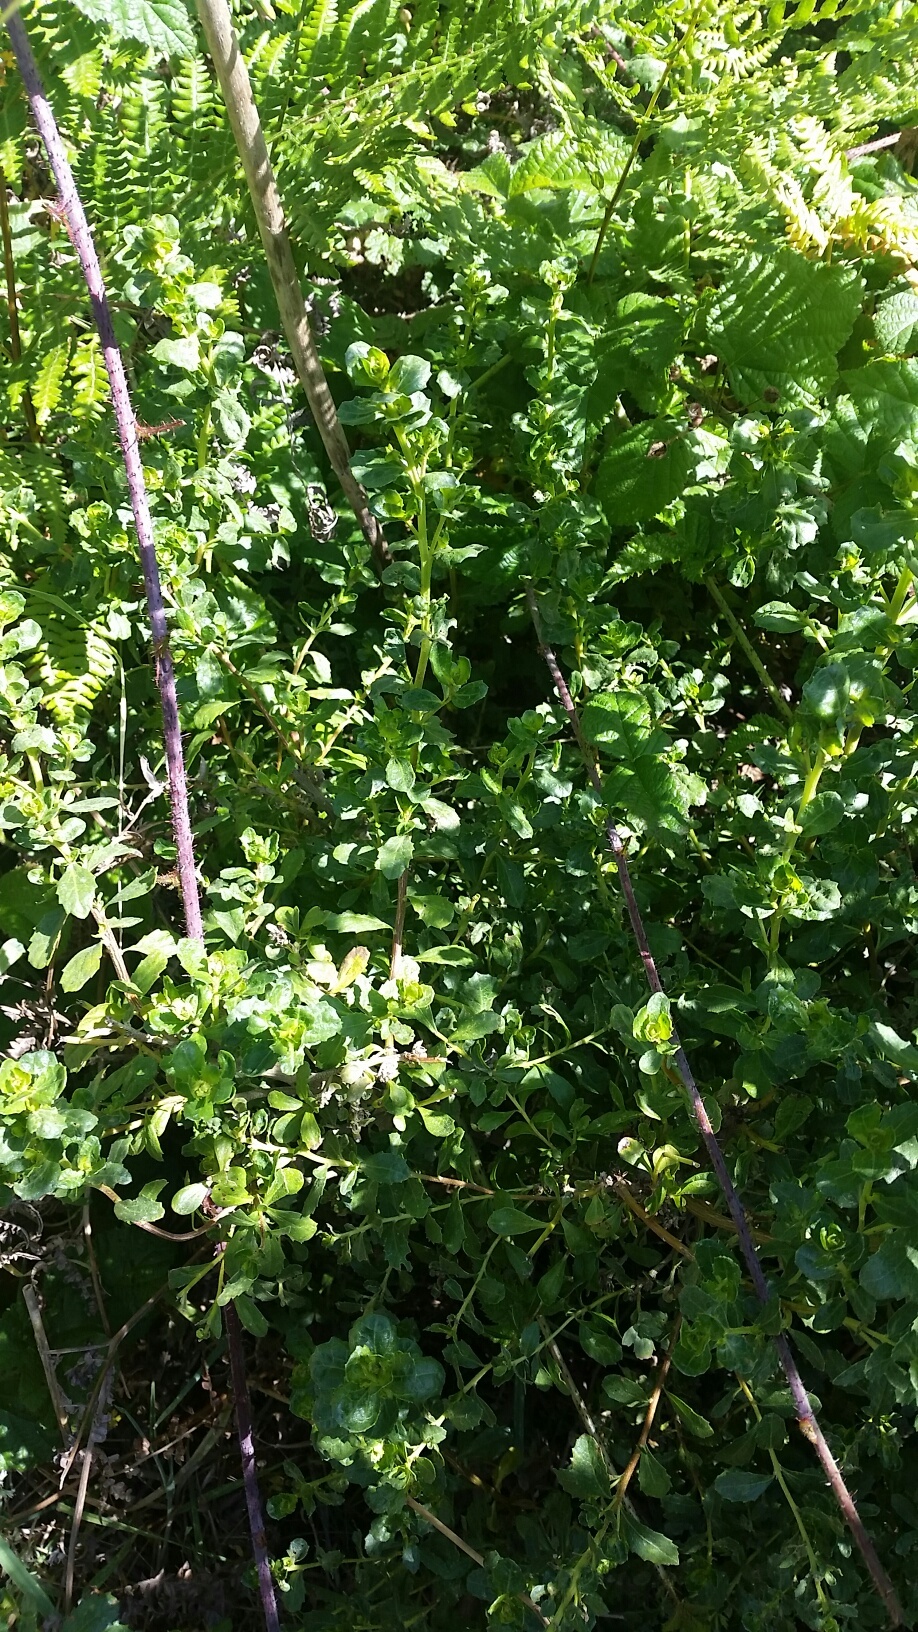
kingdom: Plantae
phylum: Tracheophyta
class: Magnoliopsida
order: Asterales
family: Asteraceae
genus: Baccharis
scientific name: Baccharis pilularis
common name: Coyotebrush
